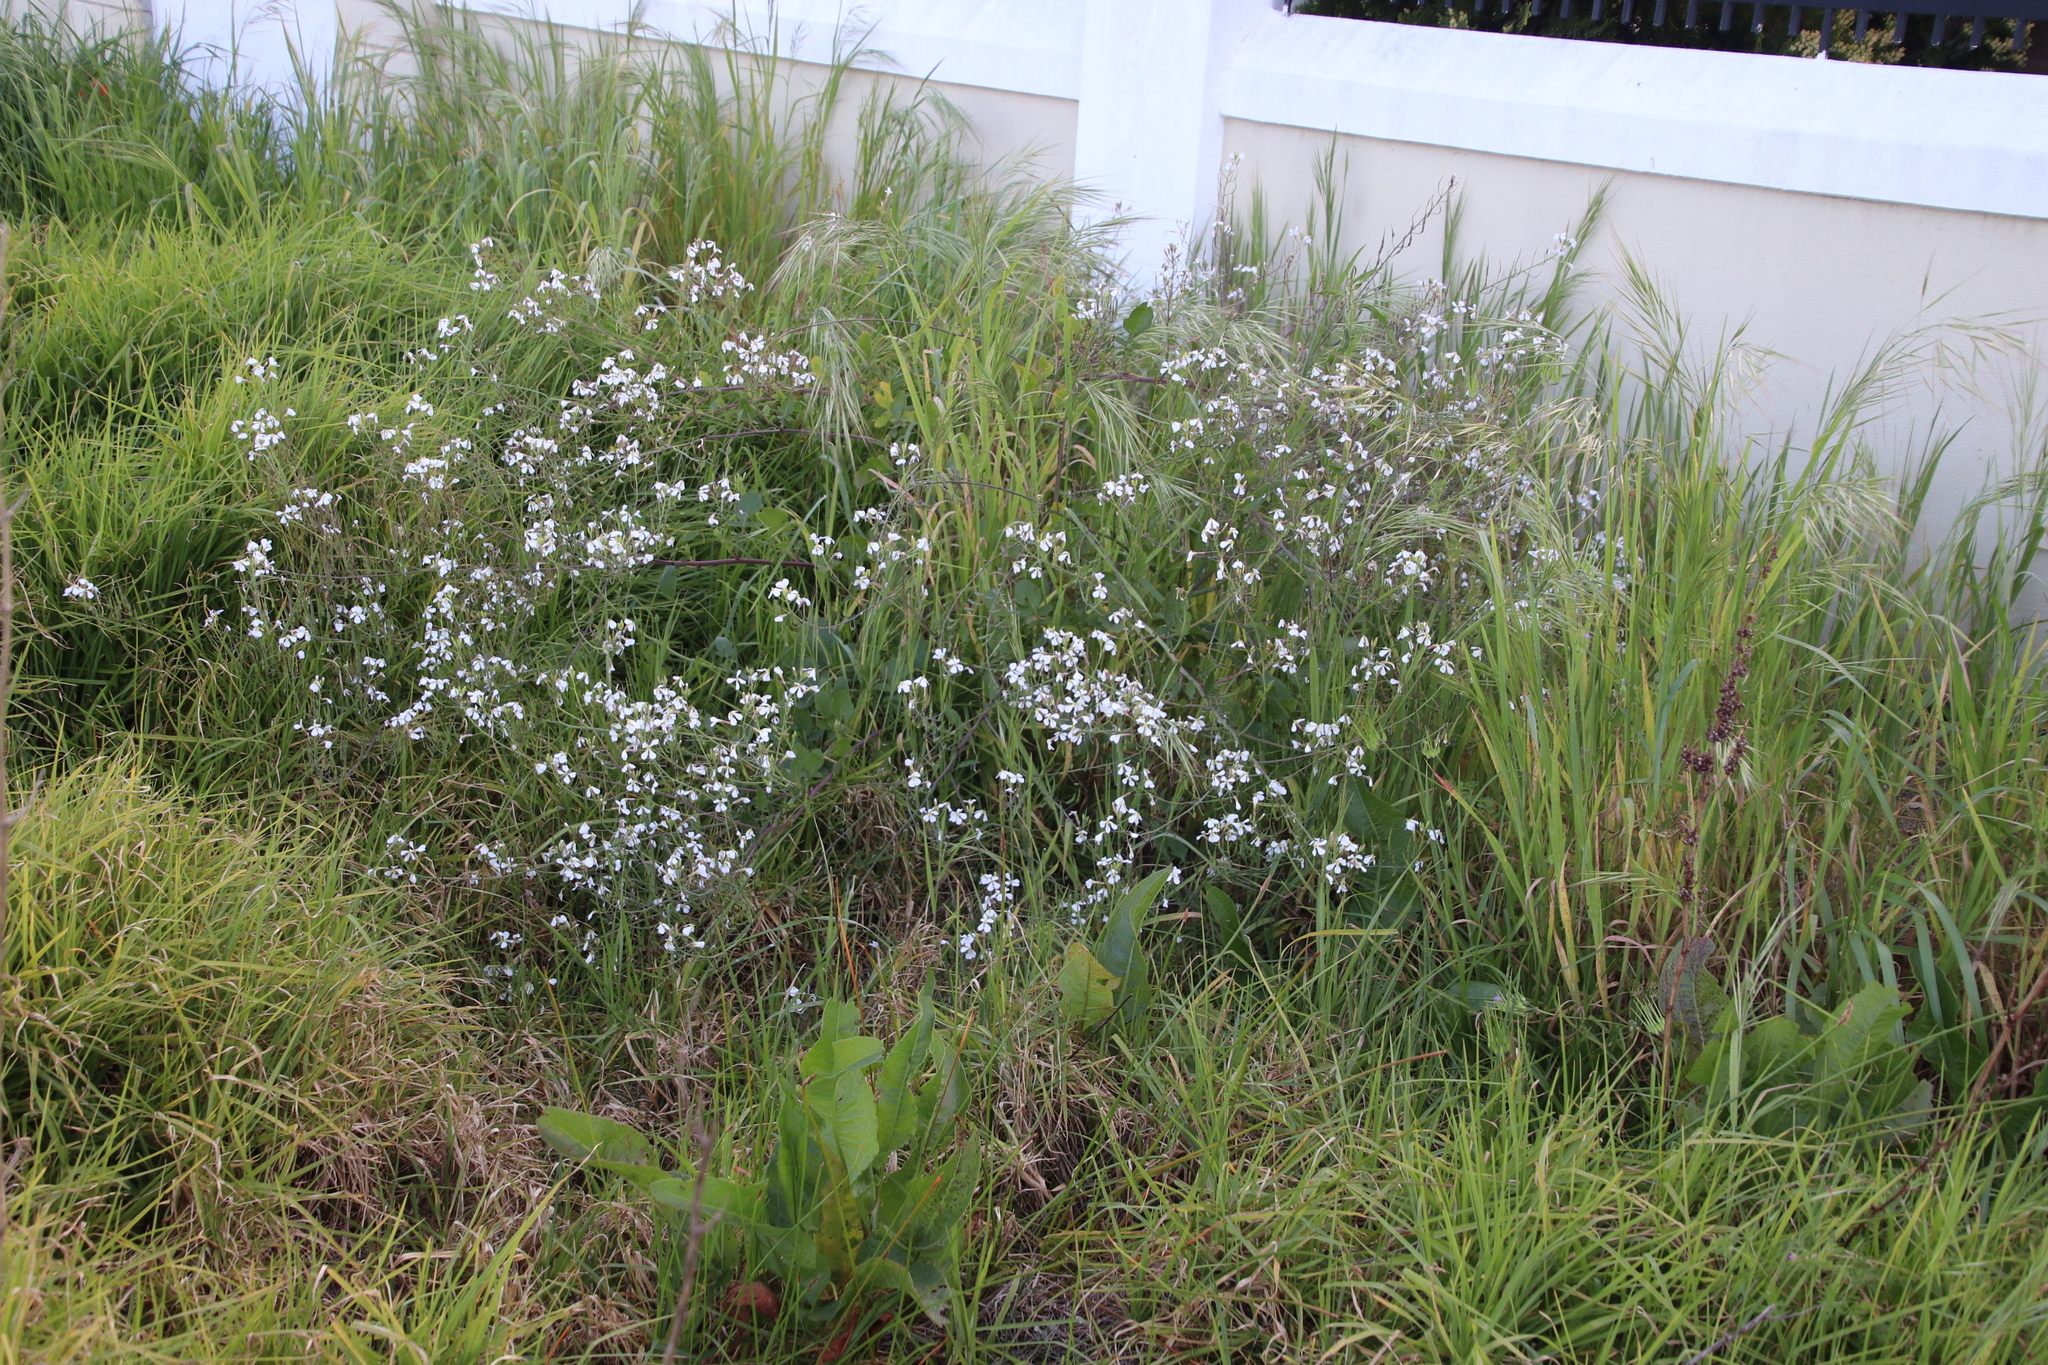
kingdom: Plantae
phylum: Tracheophyta
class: Magnoliopsida
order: Brassicales
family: Brassicaceae
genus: Raphanus
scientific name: Raphanus raphanistrum
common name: Wild radish
